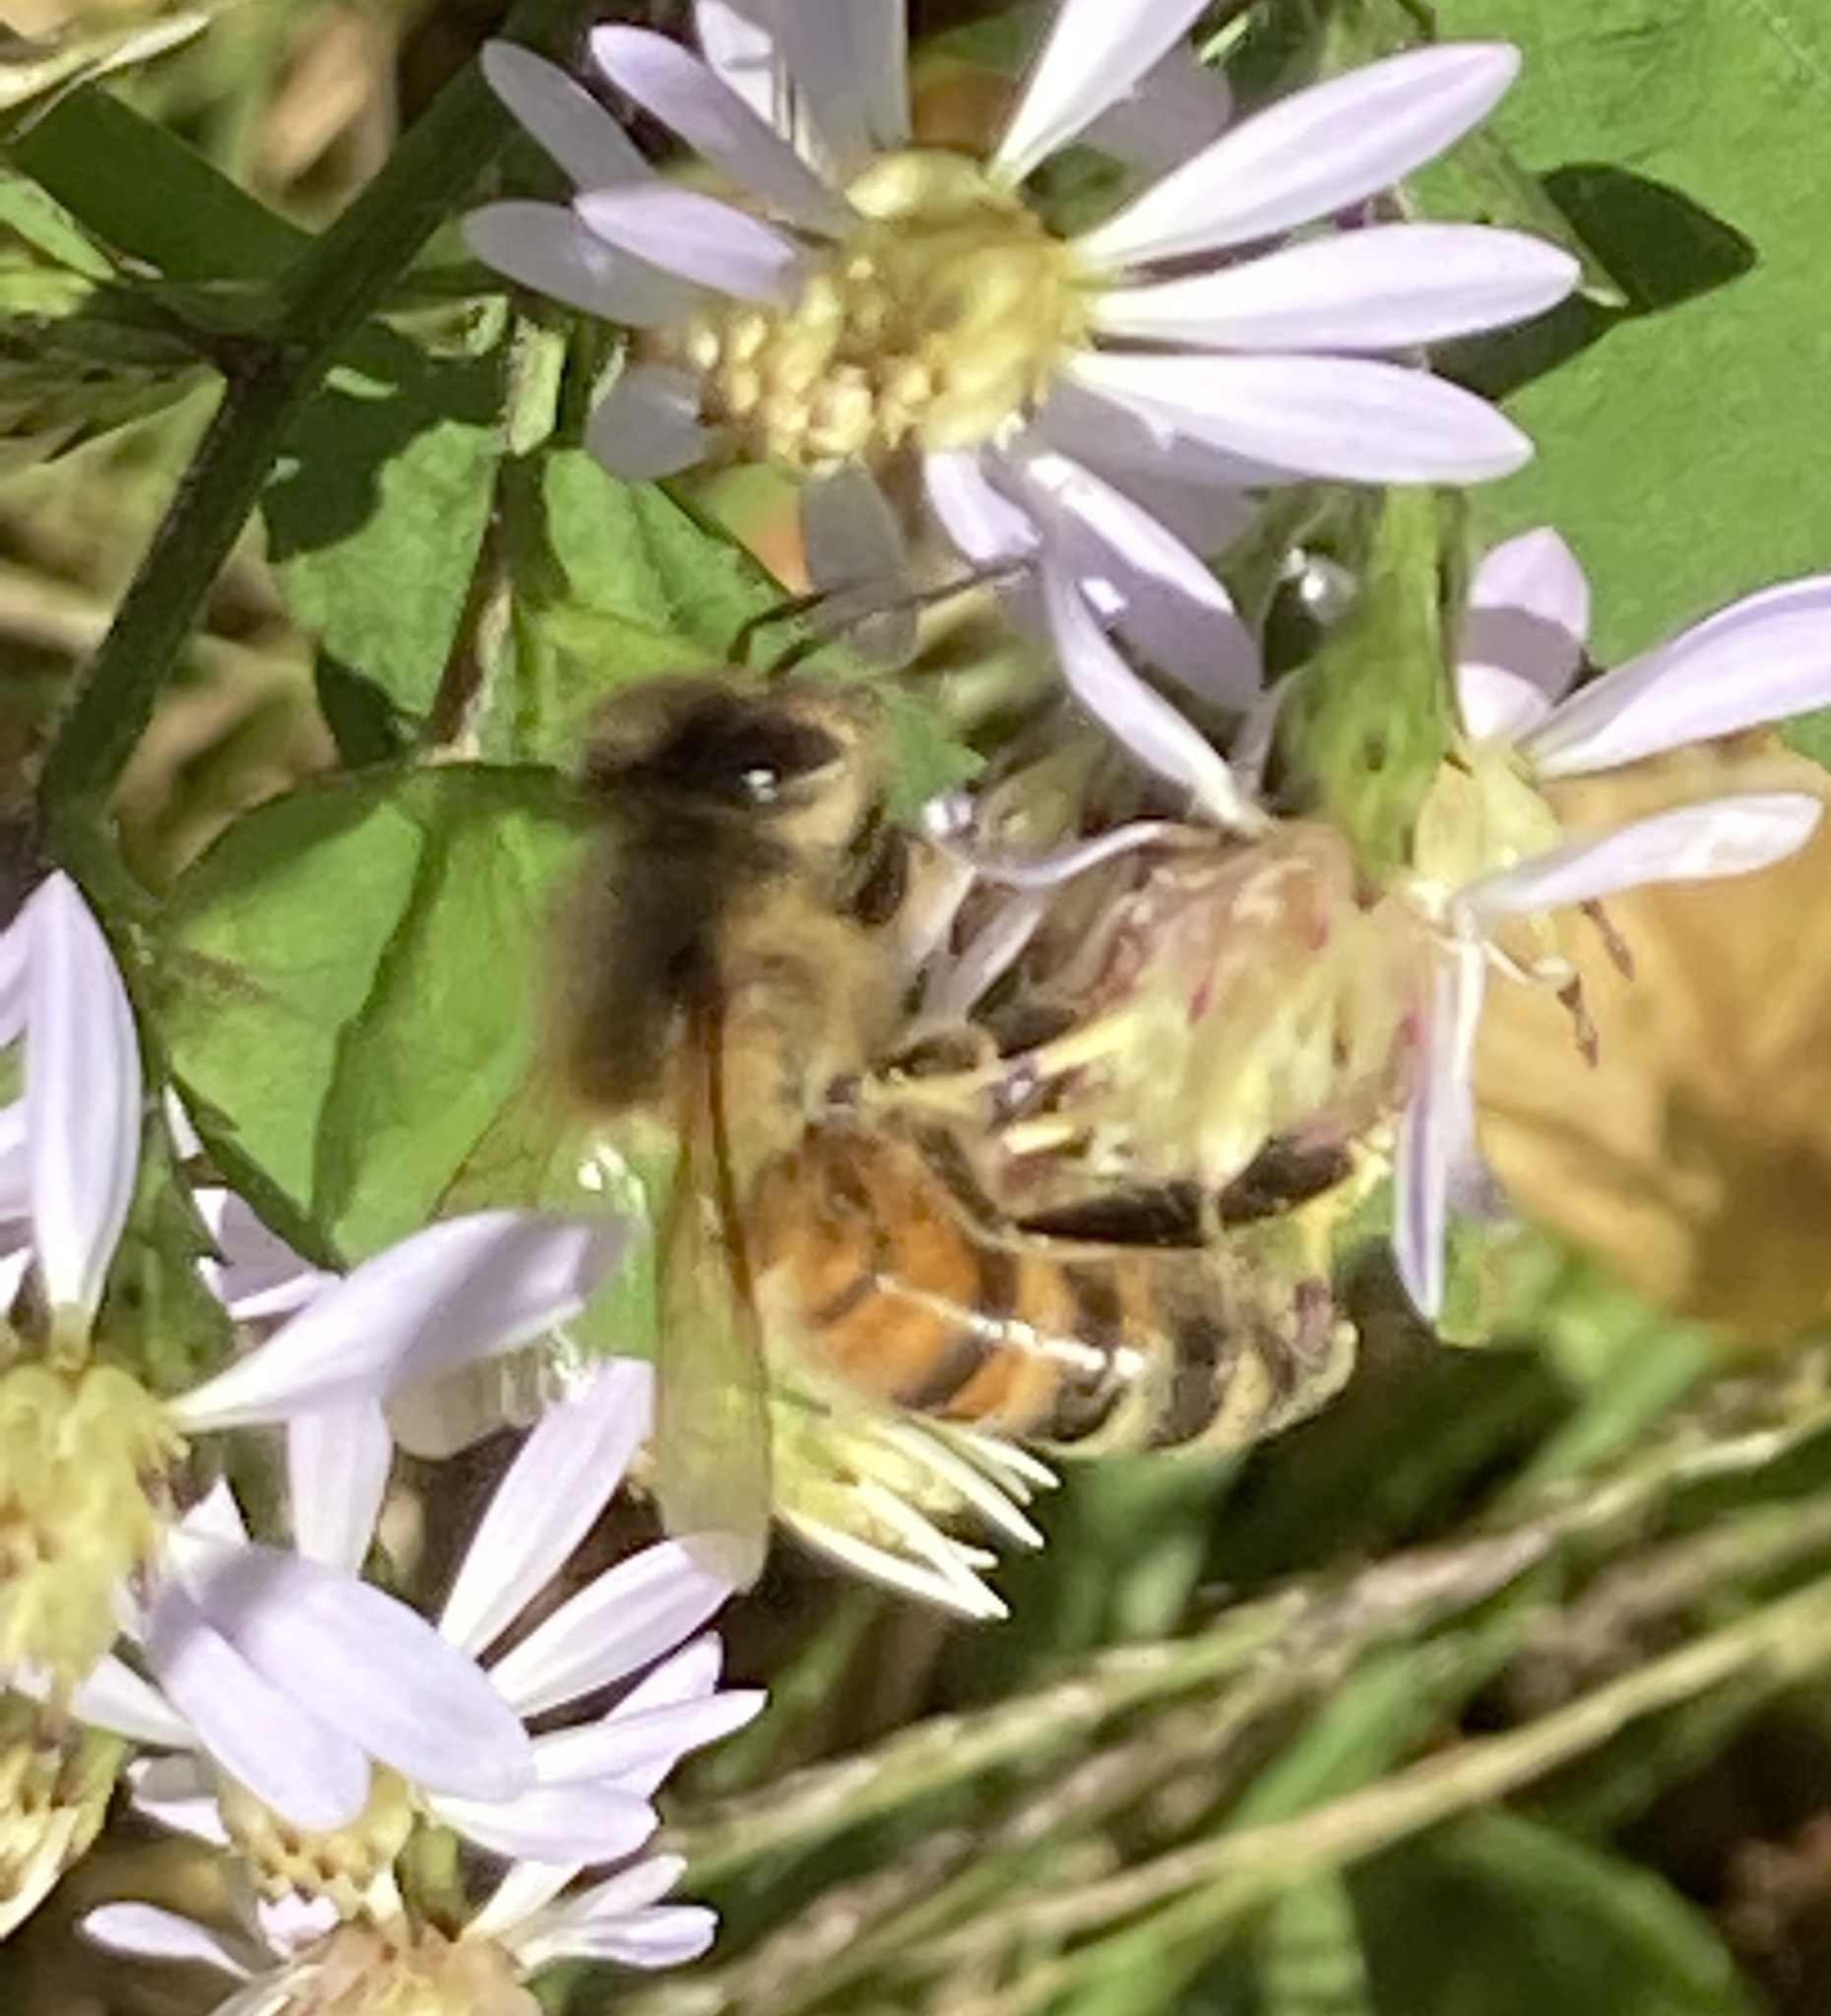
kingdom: Animalia
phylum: Arthropoda
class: Insecta
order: Hymenoptera
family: Apidae
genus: Apis
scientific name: Apis mellifera
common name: Honey bee
